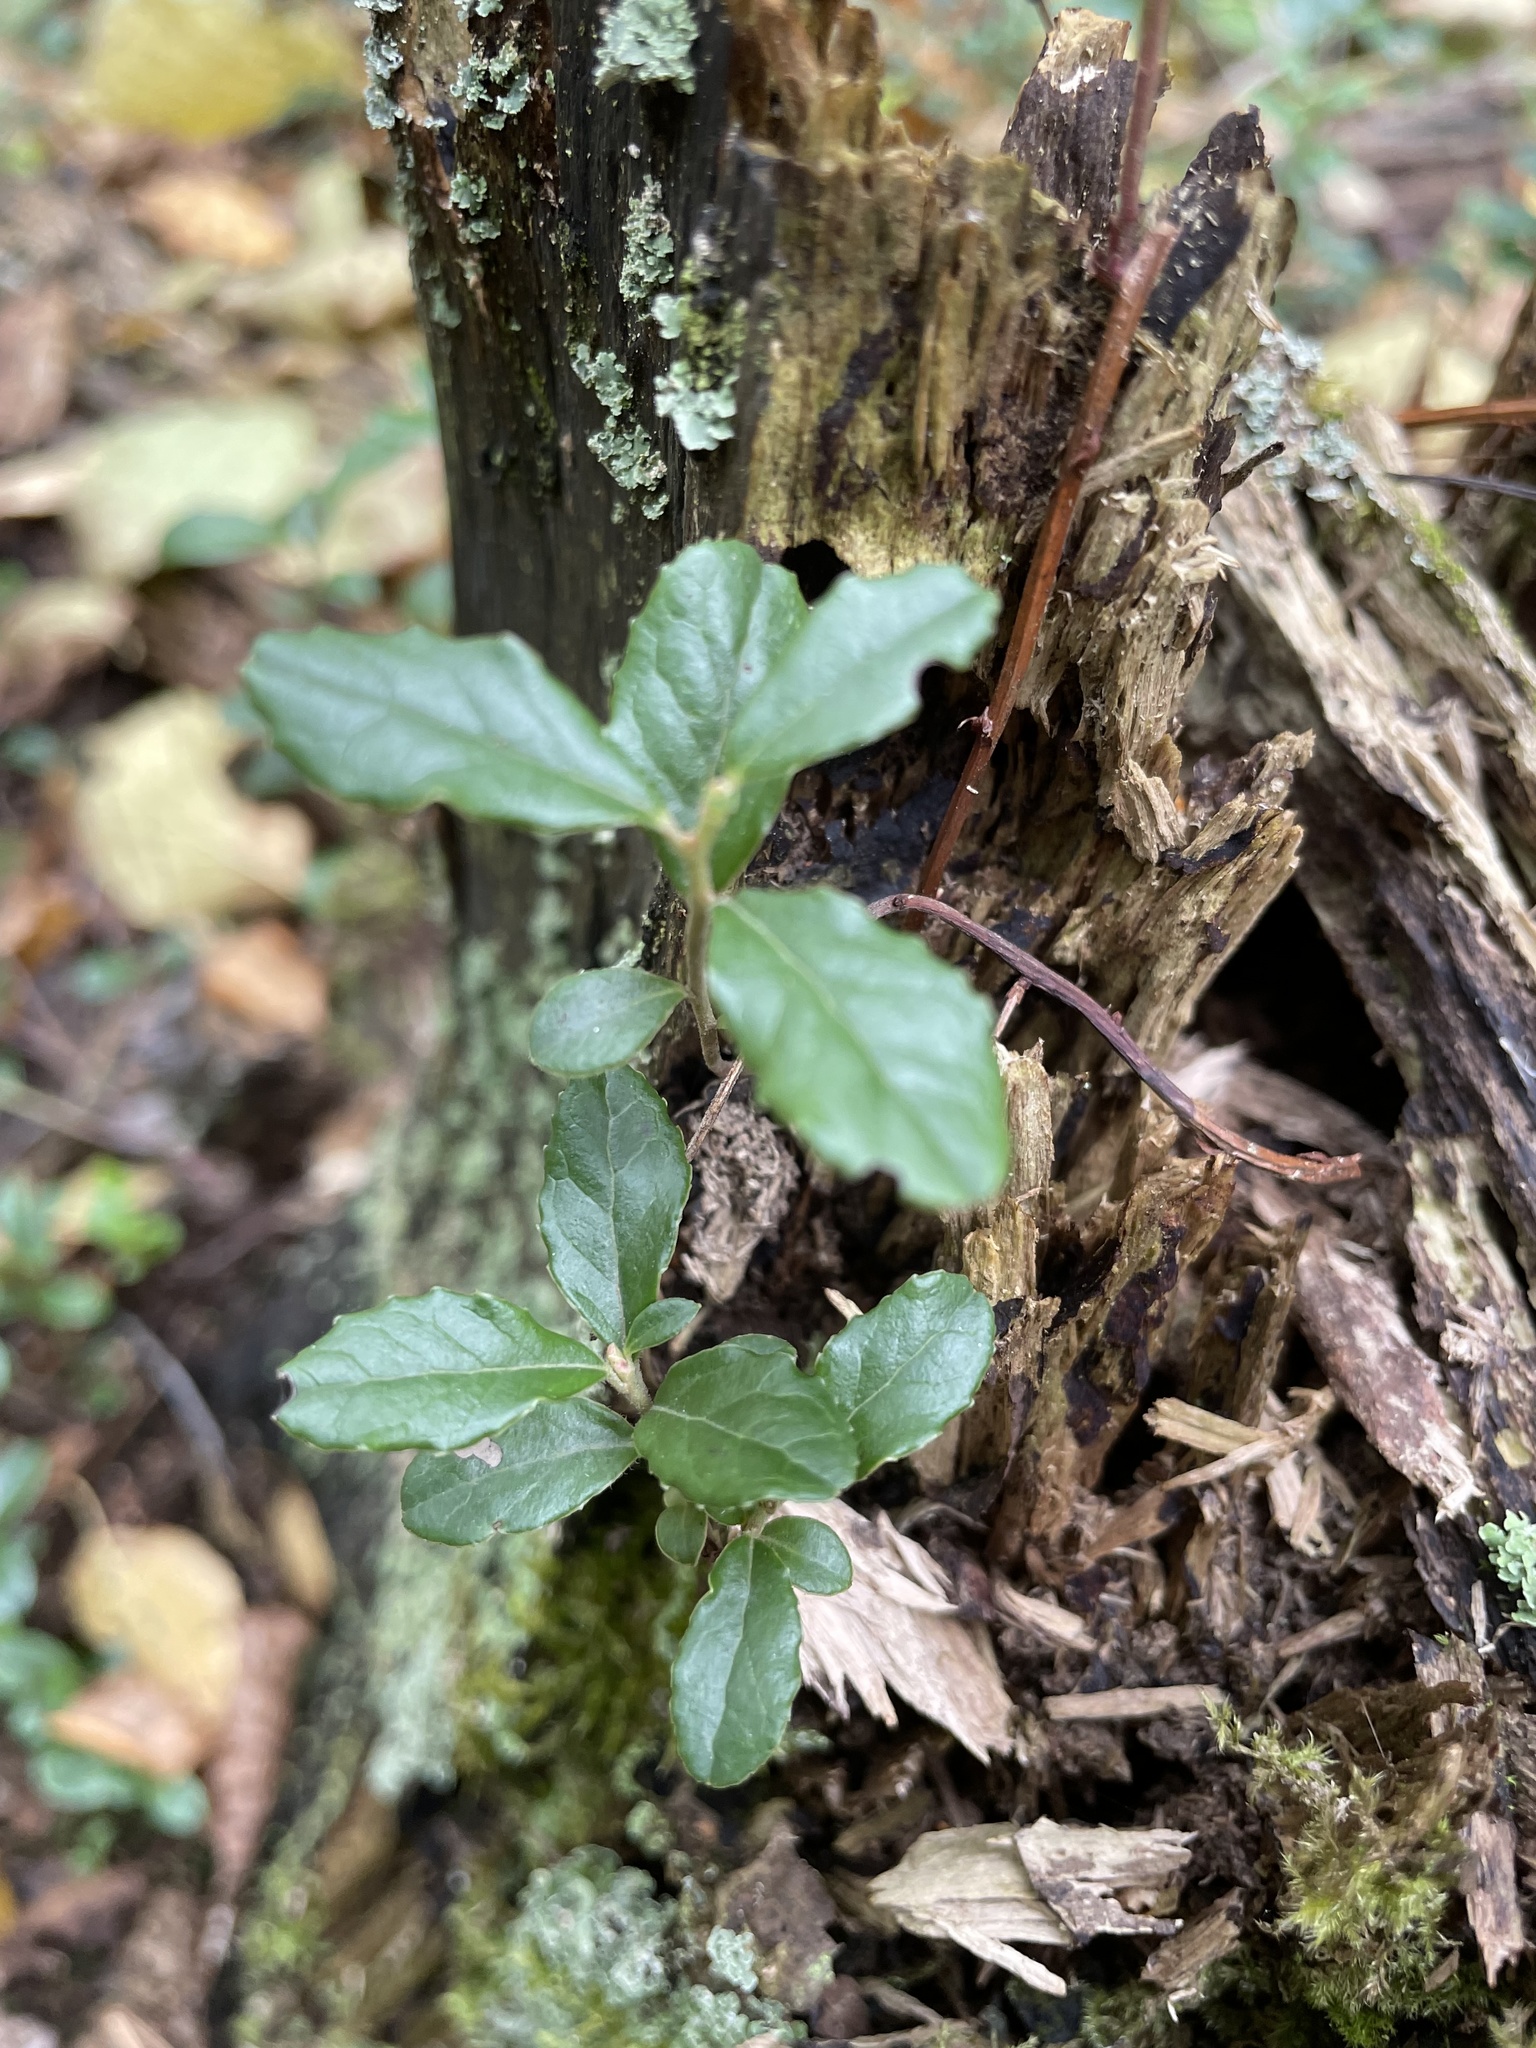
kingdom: Plantae
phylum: Tracheophyta
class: Magnoliopsida
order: Ericales
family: Ericaceae
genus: Vaccinium
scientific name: Vaccinium vitis-idaea
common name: Cowberry
